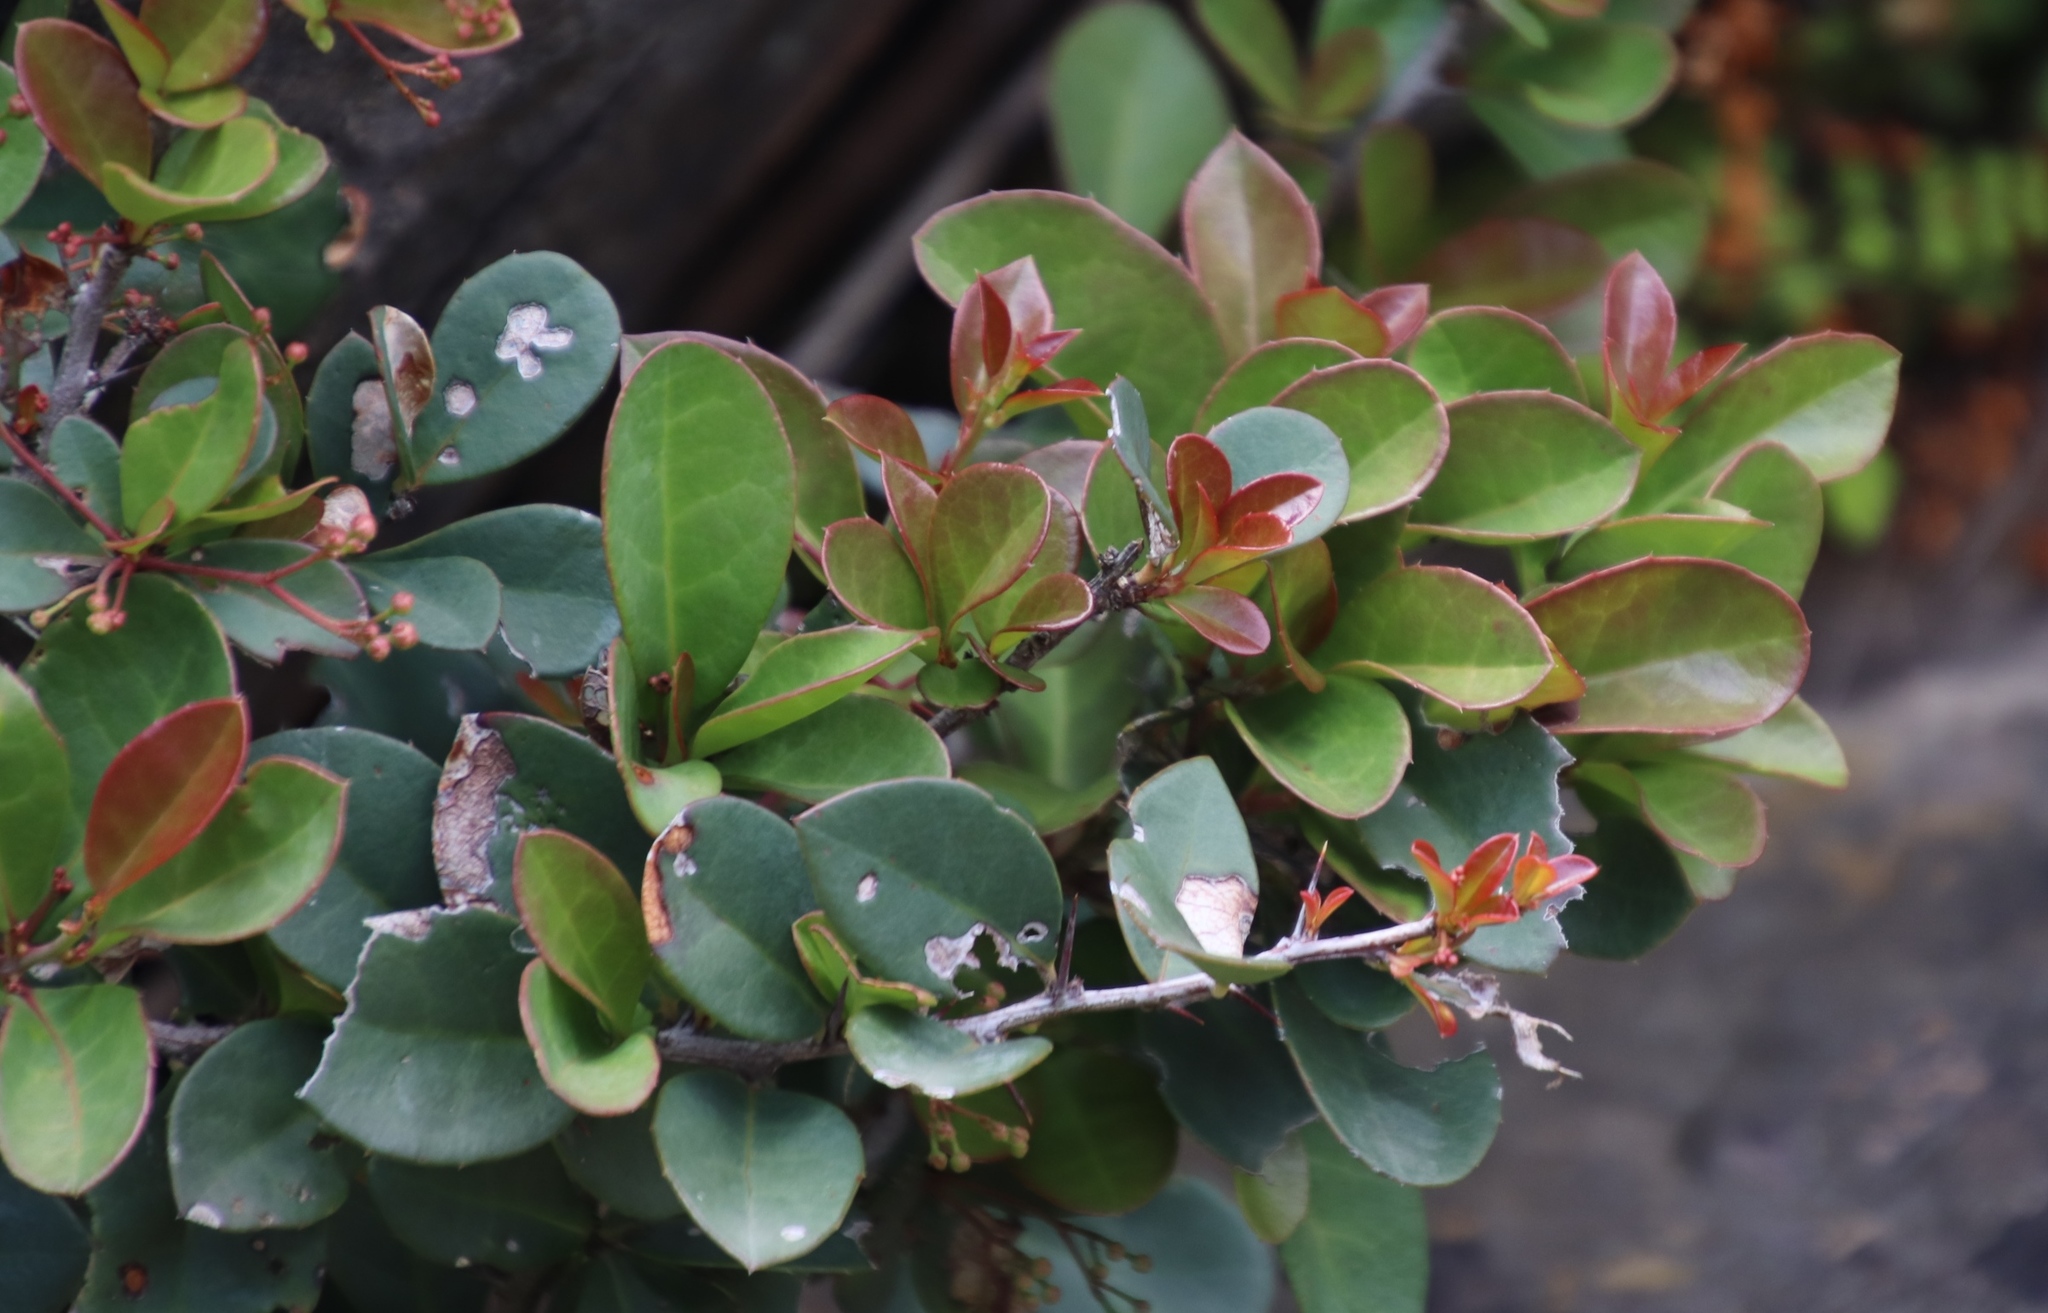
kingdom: Plantae
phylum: Tracheophyta
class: Magnoliopsida
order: Celastrales
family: Celastraceae
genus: Putterlickia
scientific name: Putterlickia pyracantha
